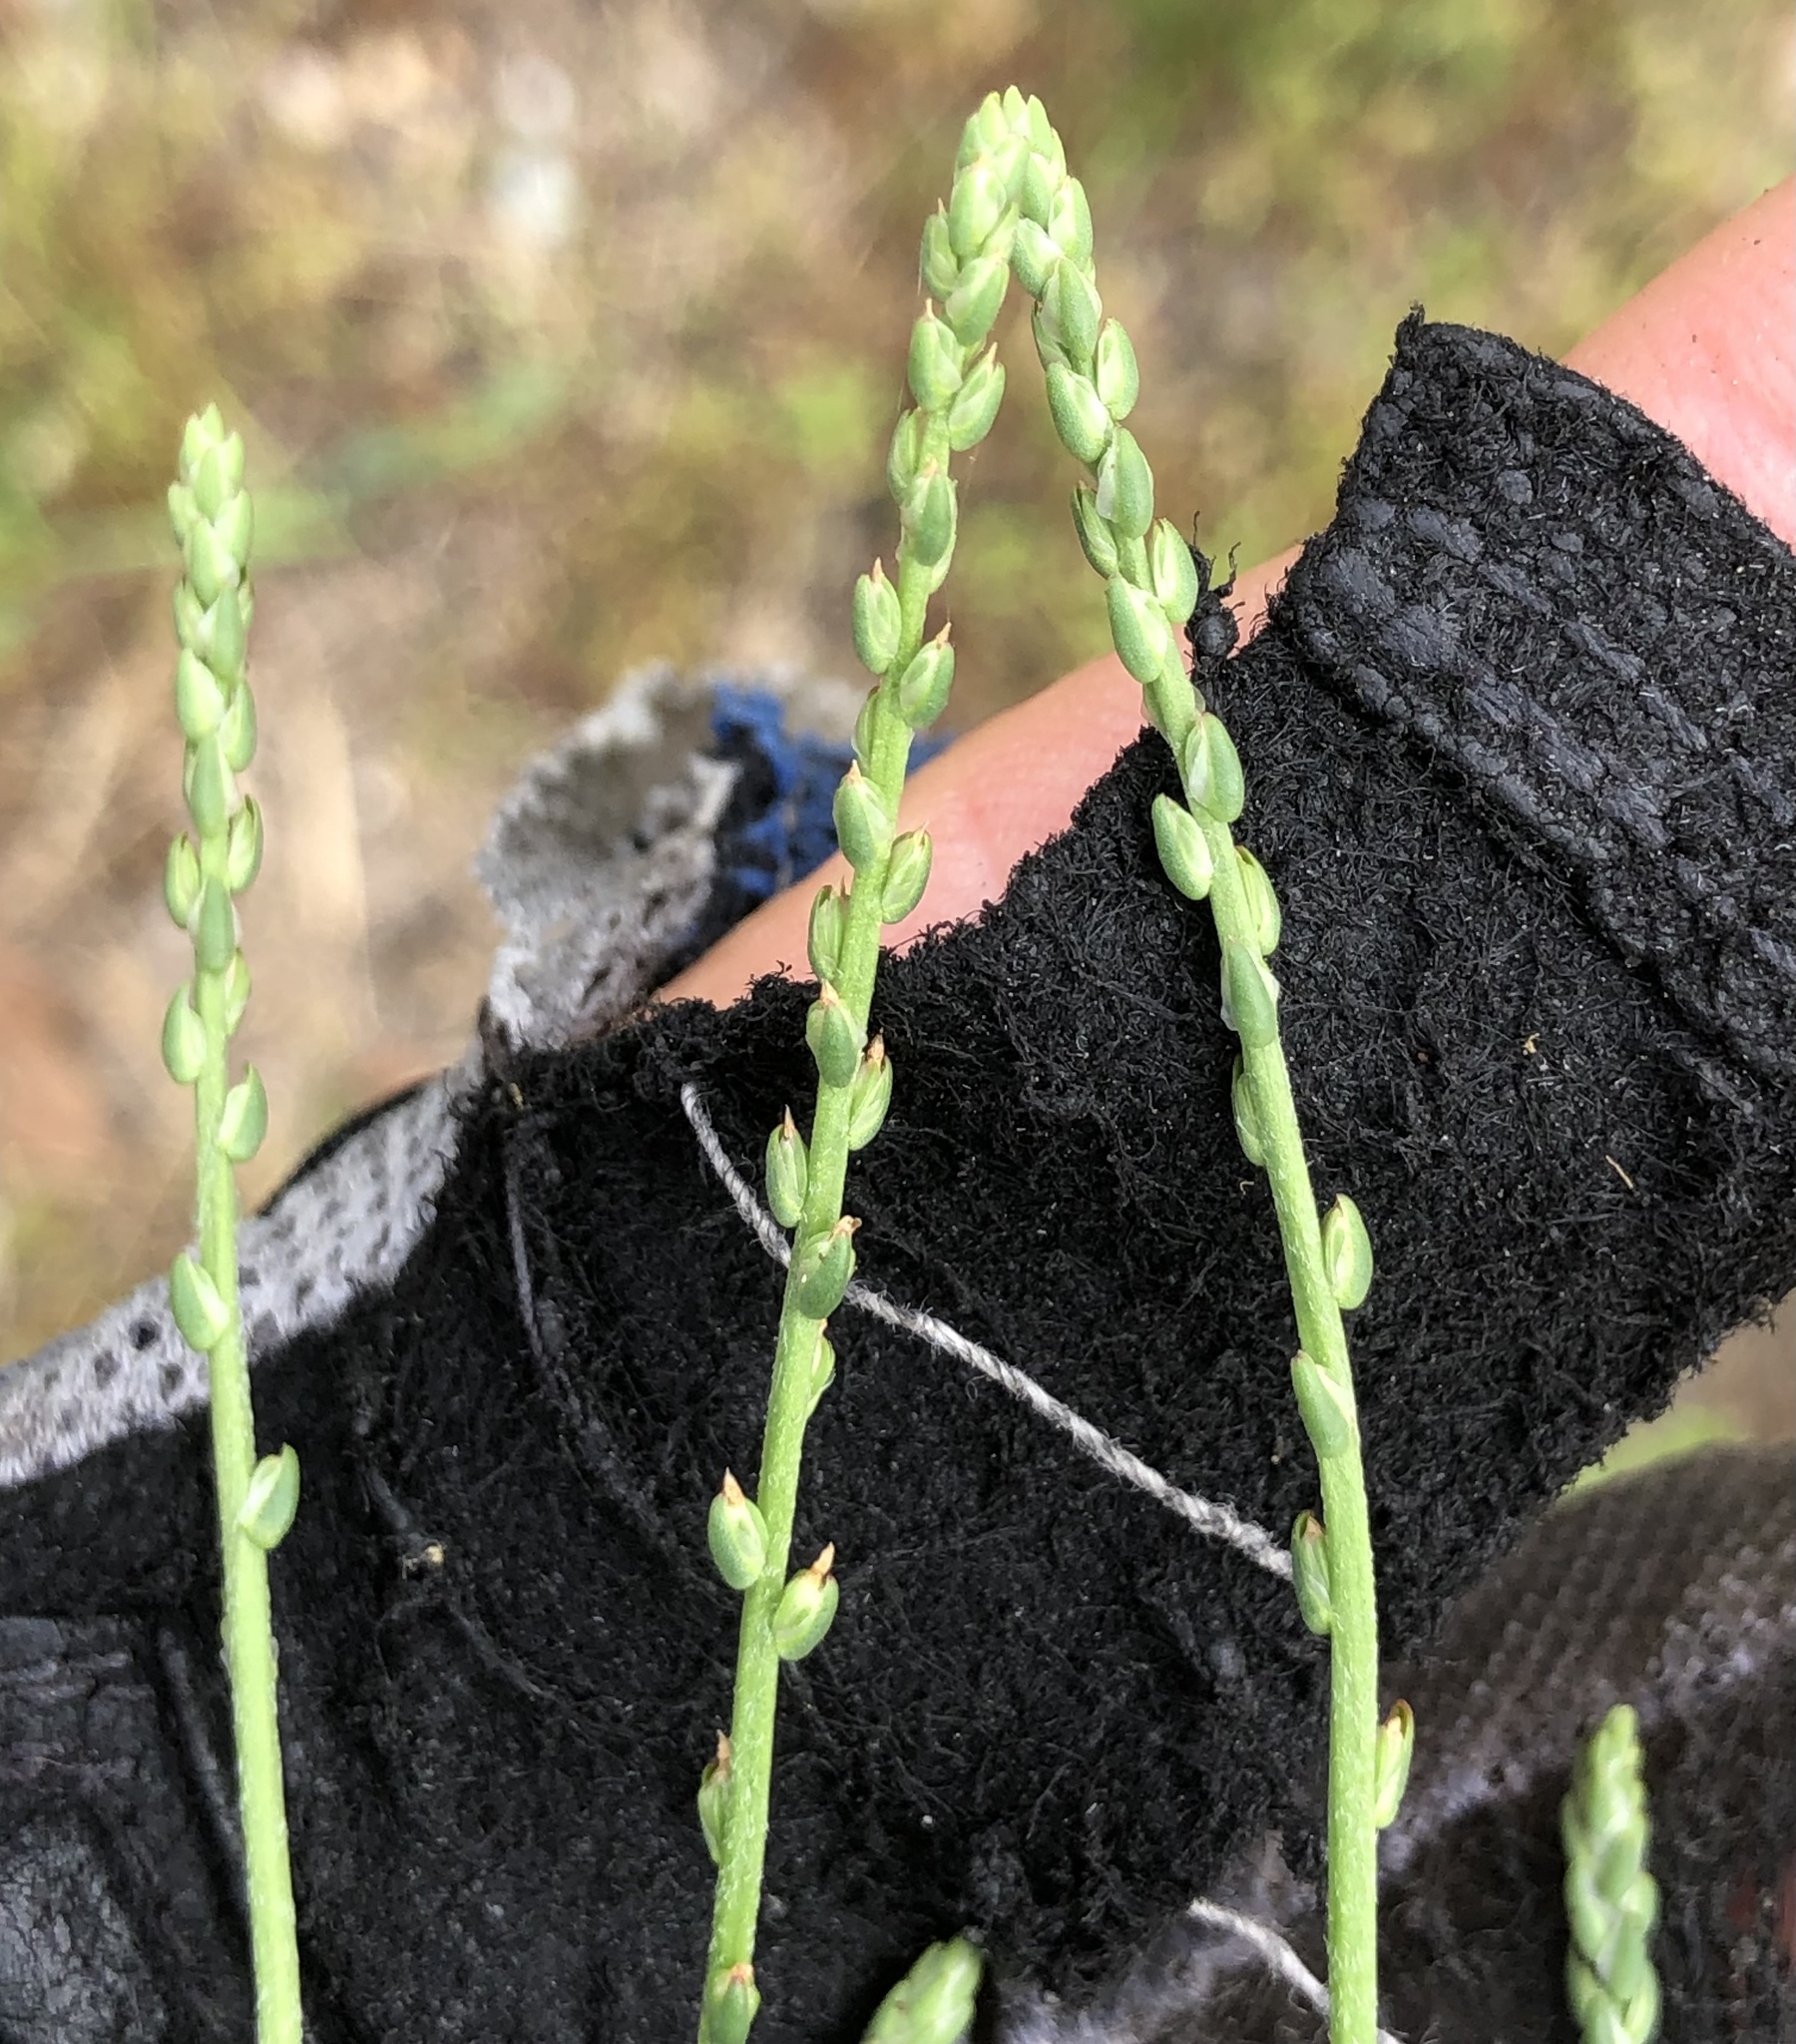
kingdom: Plantae
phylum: Tracheophyta
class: Magnoliopsida
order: Lamiales
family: Plantaginaceae
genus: Plantago
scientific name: Plantago heterophylla
